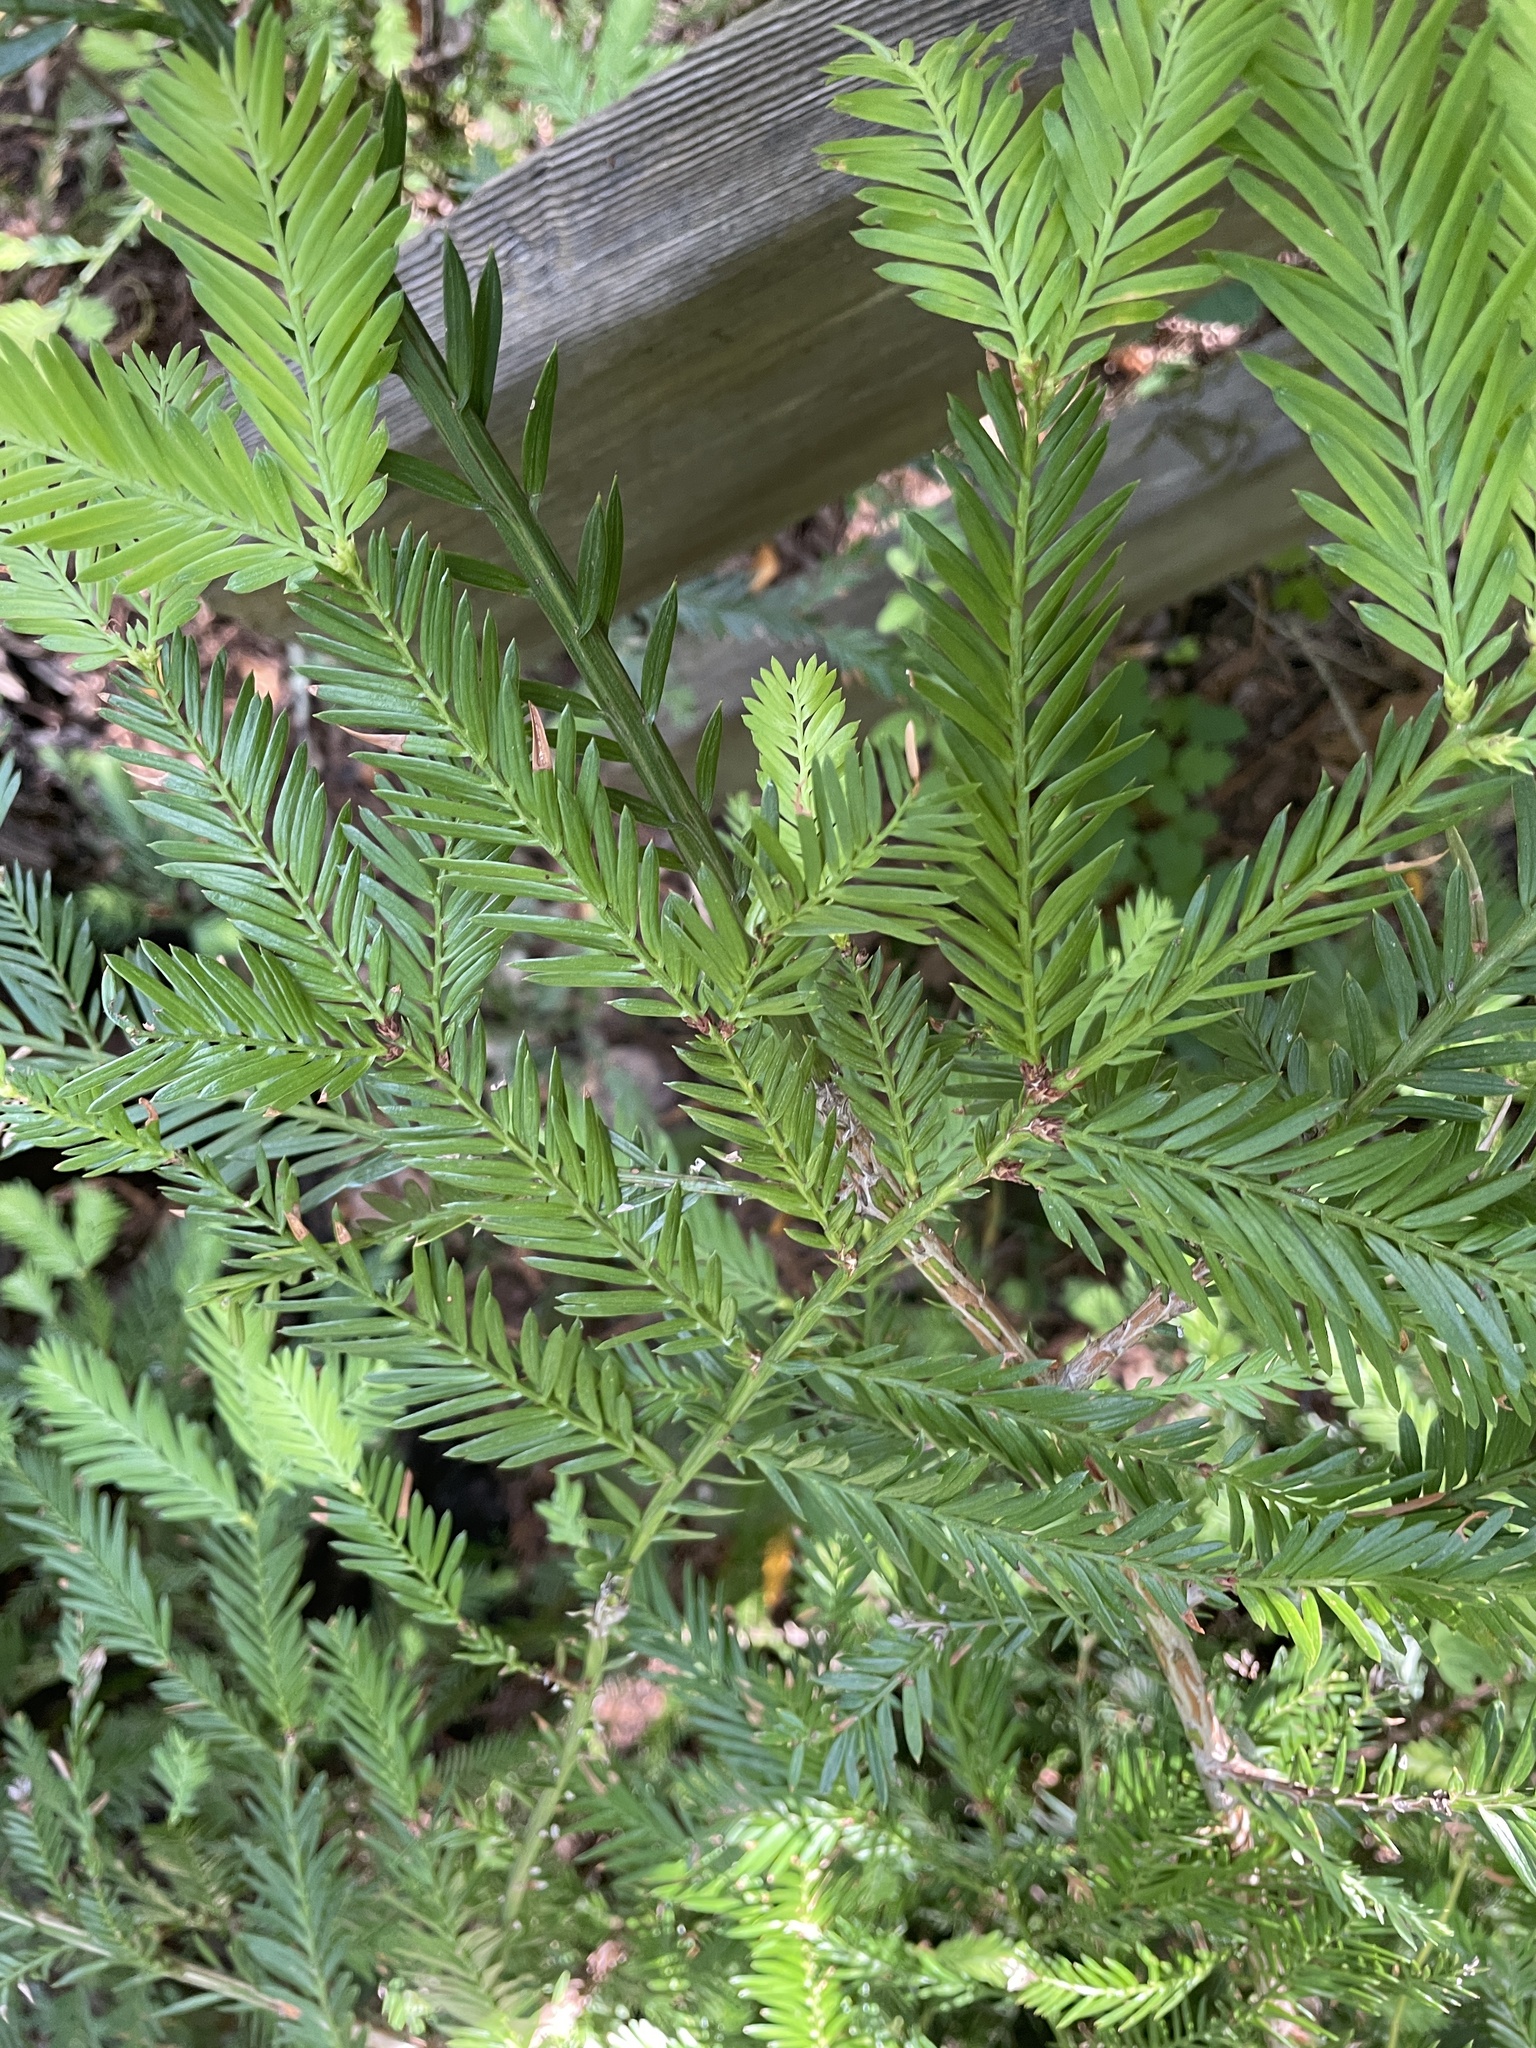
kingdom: Plantae
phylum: Tracheophyta
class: Pinopsida
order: Pinales
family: Cupressaceae
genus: Sequoia
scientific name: Sequoia sempervirens
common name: Coast redwood
